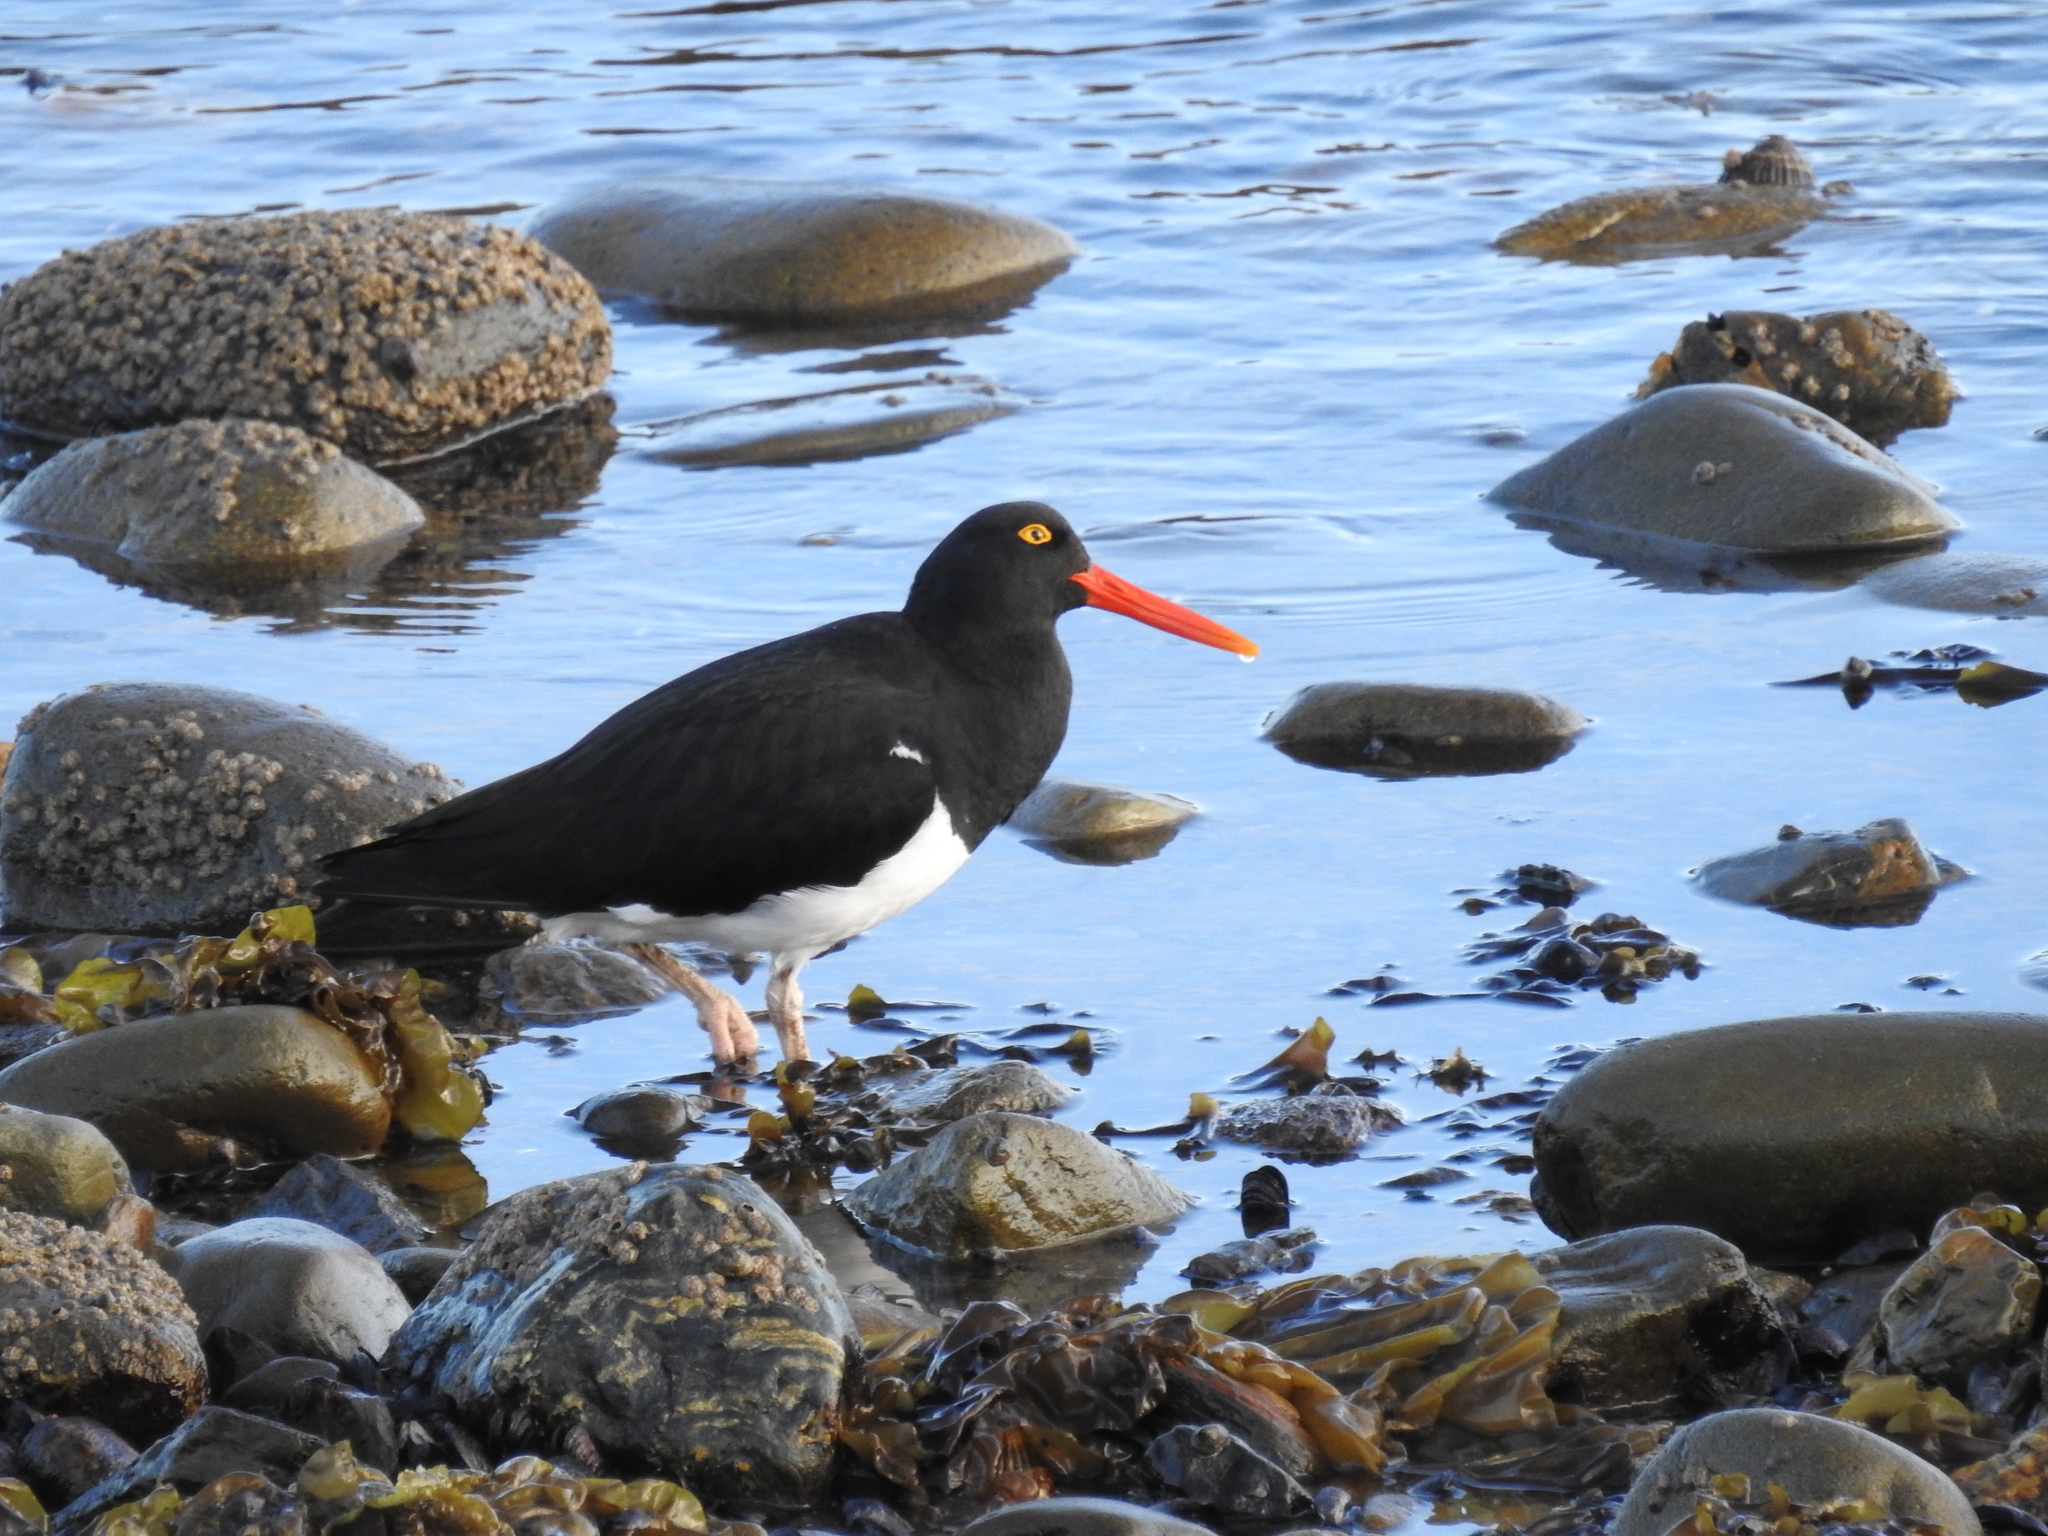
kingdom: Animalia
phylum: Chordata
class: Aves
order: Charadriiformes
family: Haematopodidae
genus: Haematopus
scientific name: Haematopus leucopodus
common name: Magellanic oystercatcher
